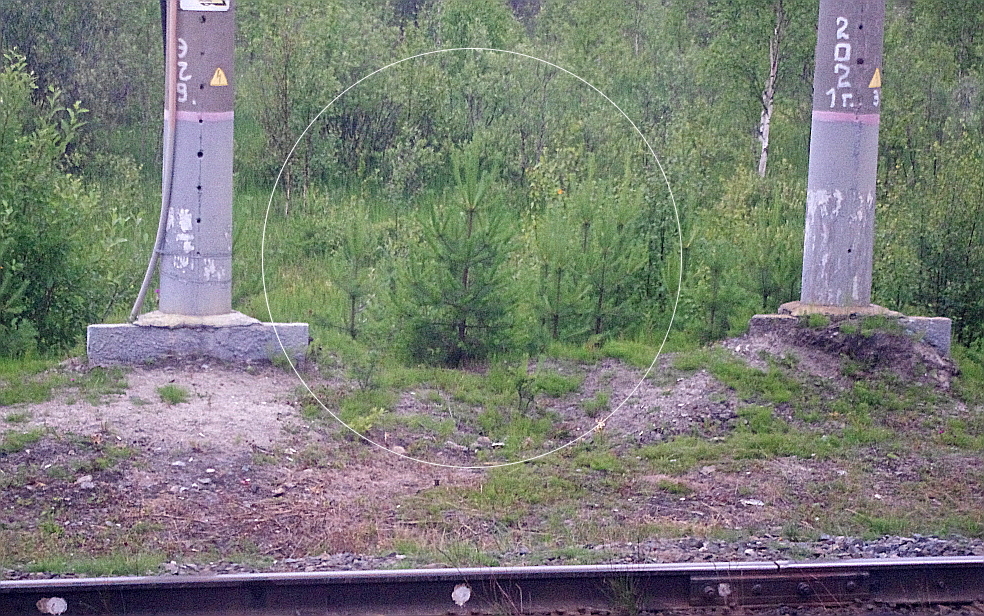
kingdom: Plantae
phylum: Tracheophyta
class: Pinopsida
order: Pinales
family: Pinaceae
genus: Pinus
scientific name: Pinus sylvestris
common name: Scots pine
